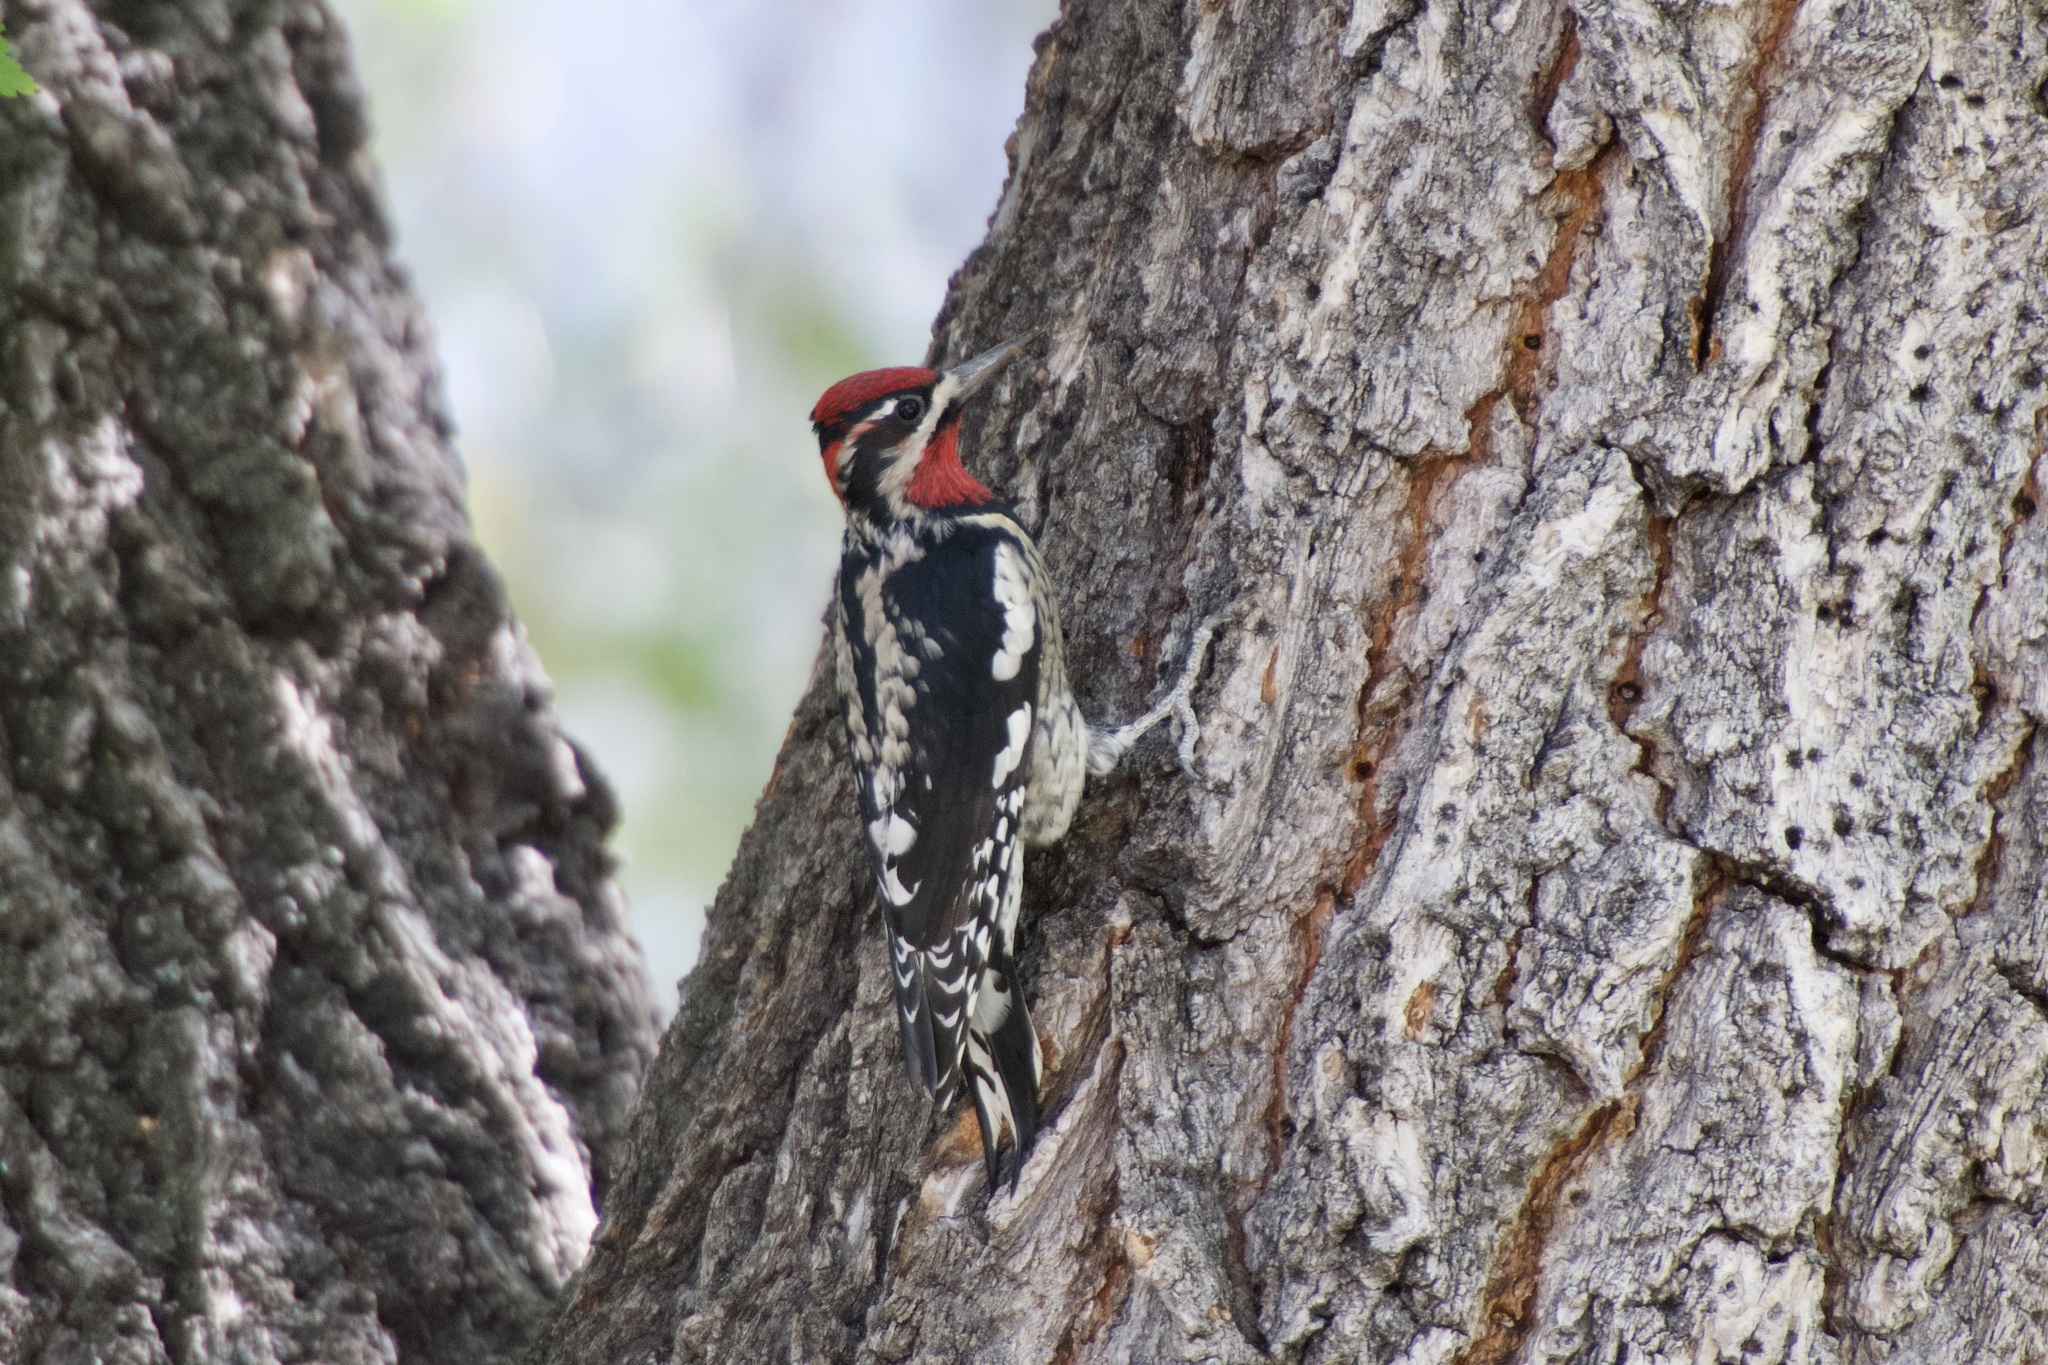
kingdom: Animalia
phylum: Chordata
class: Aves
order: Piciformes
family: Picidae
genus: Sphyrapicus
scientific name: Sphyrapicus nuchalis
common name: Red-naped sapsucker
